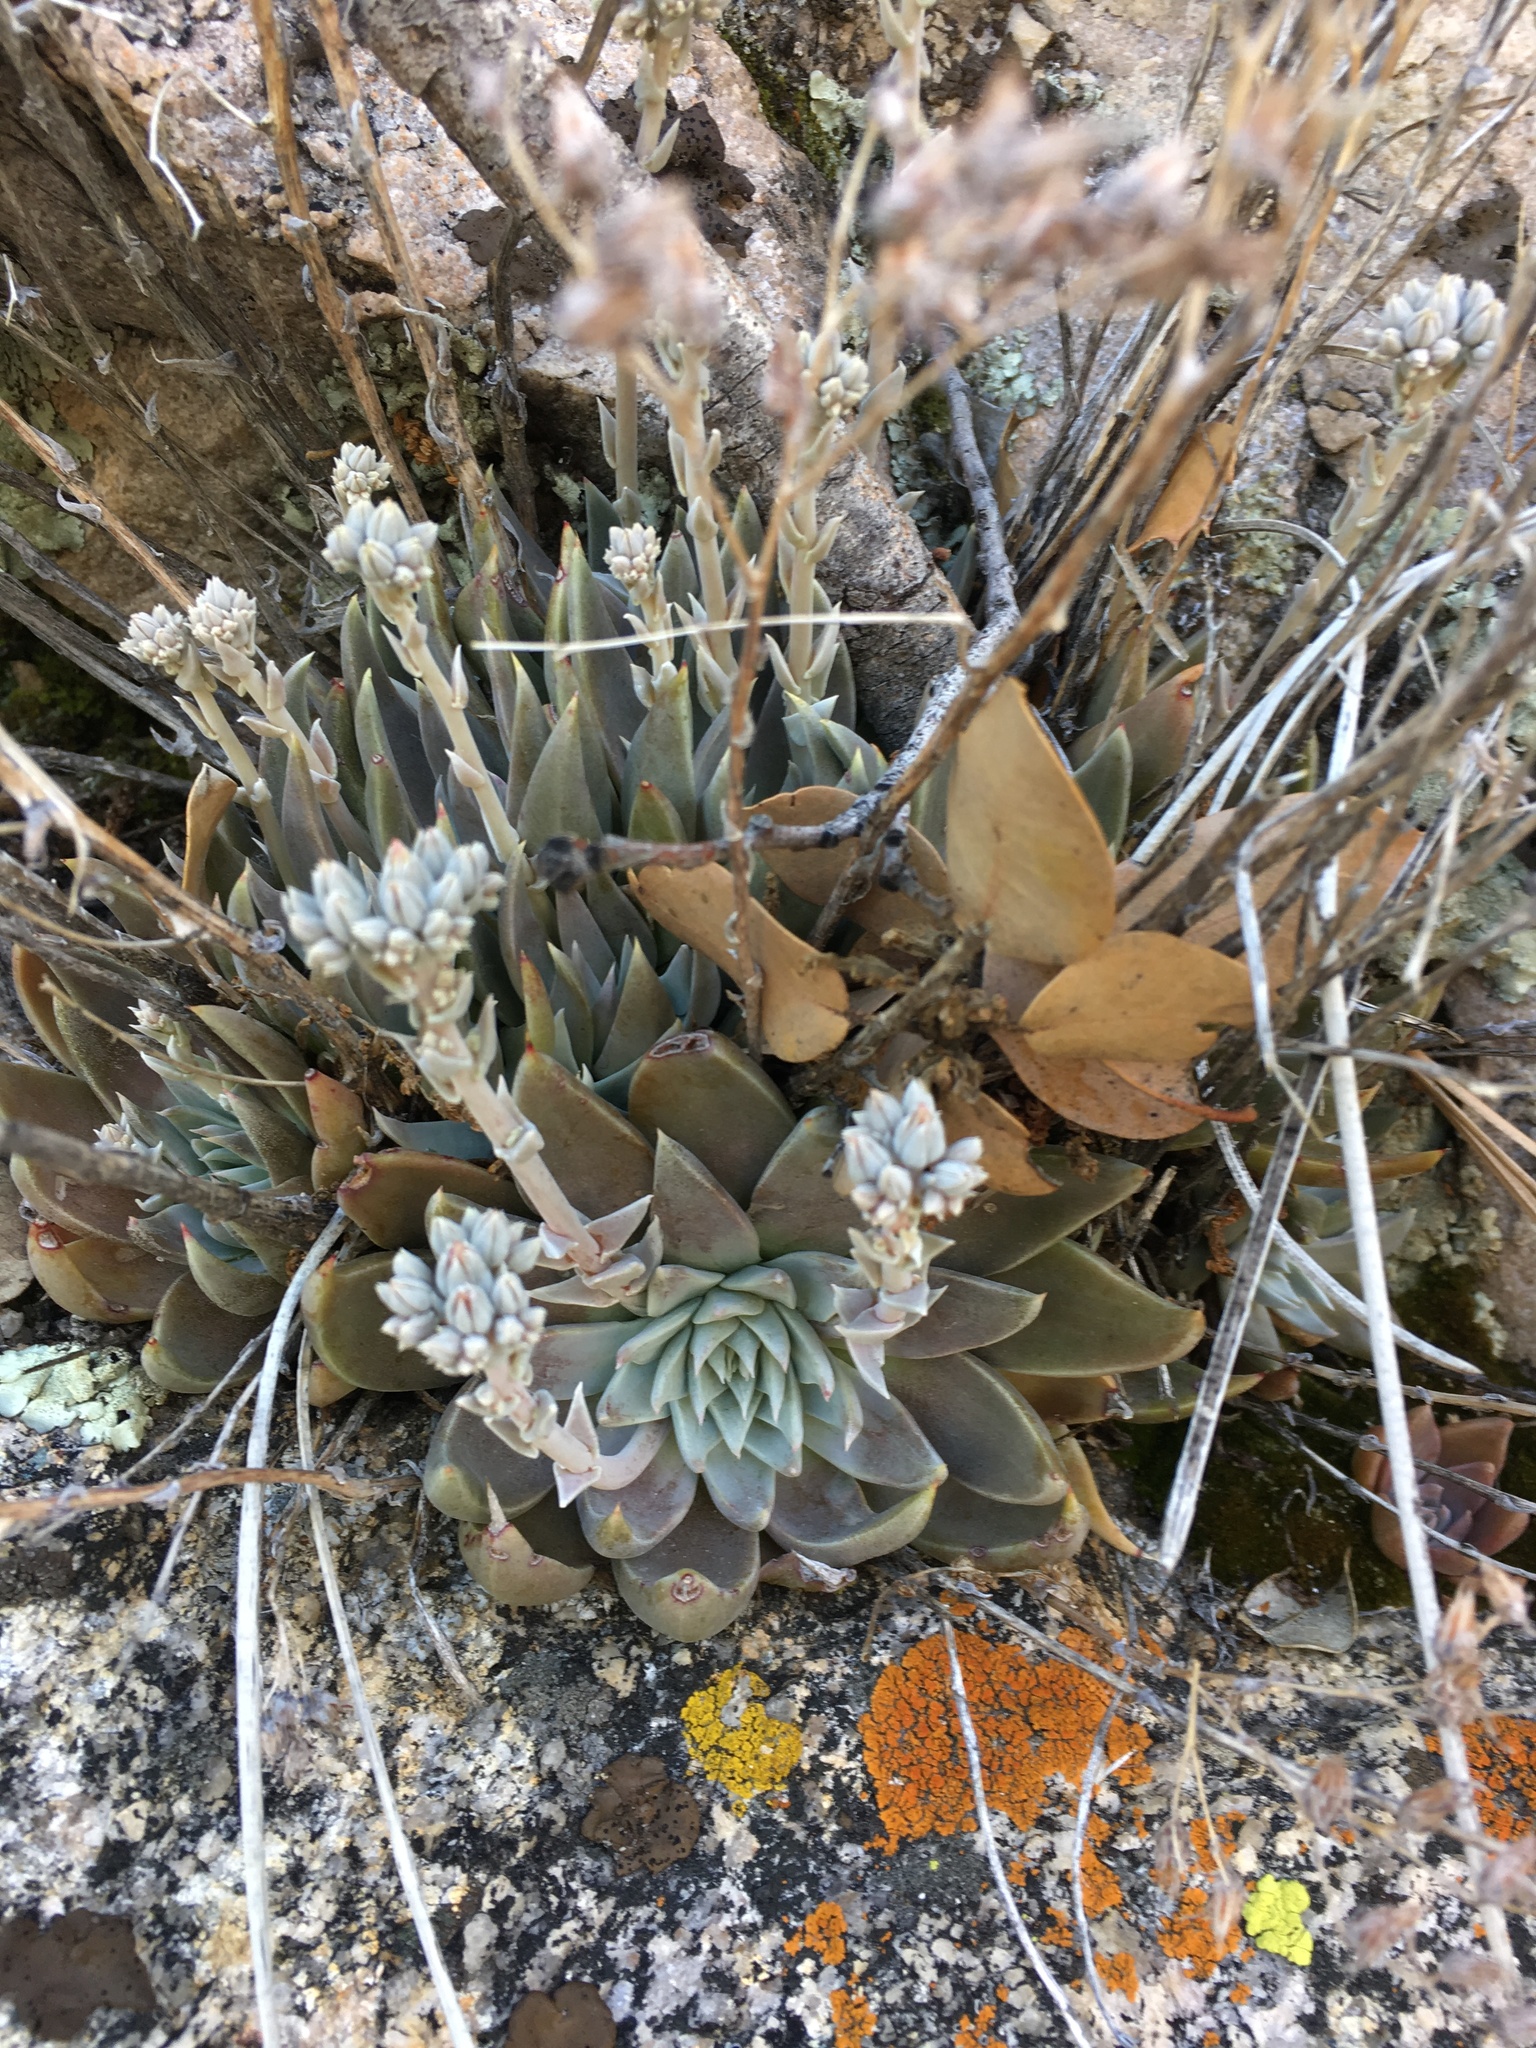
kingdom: Plantae
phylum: Tracheophyta
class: Magnoliopsida
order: Saxifragales
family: Crassulaceae
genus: Dudleya
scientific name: Dudleya abramsii
